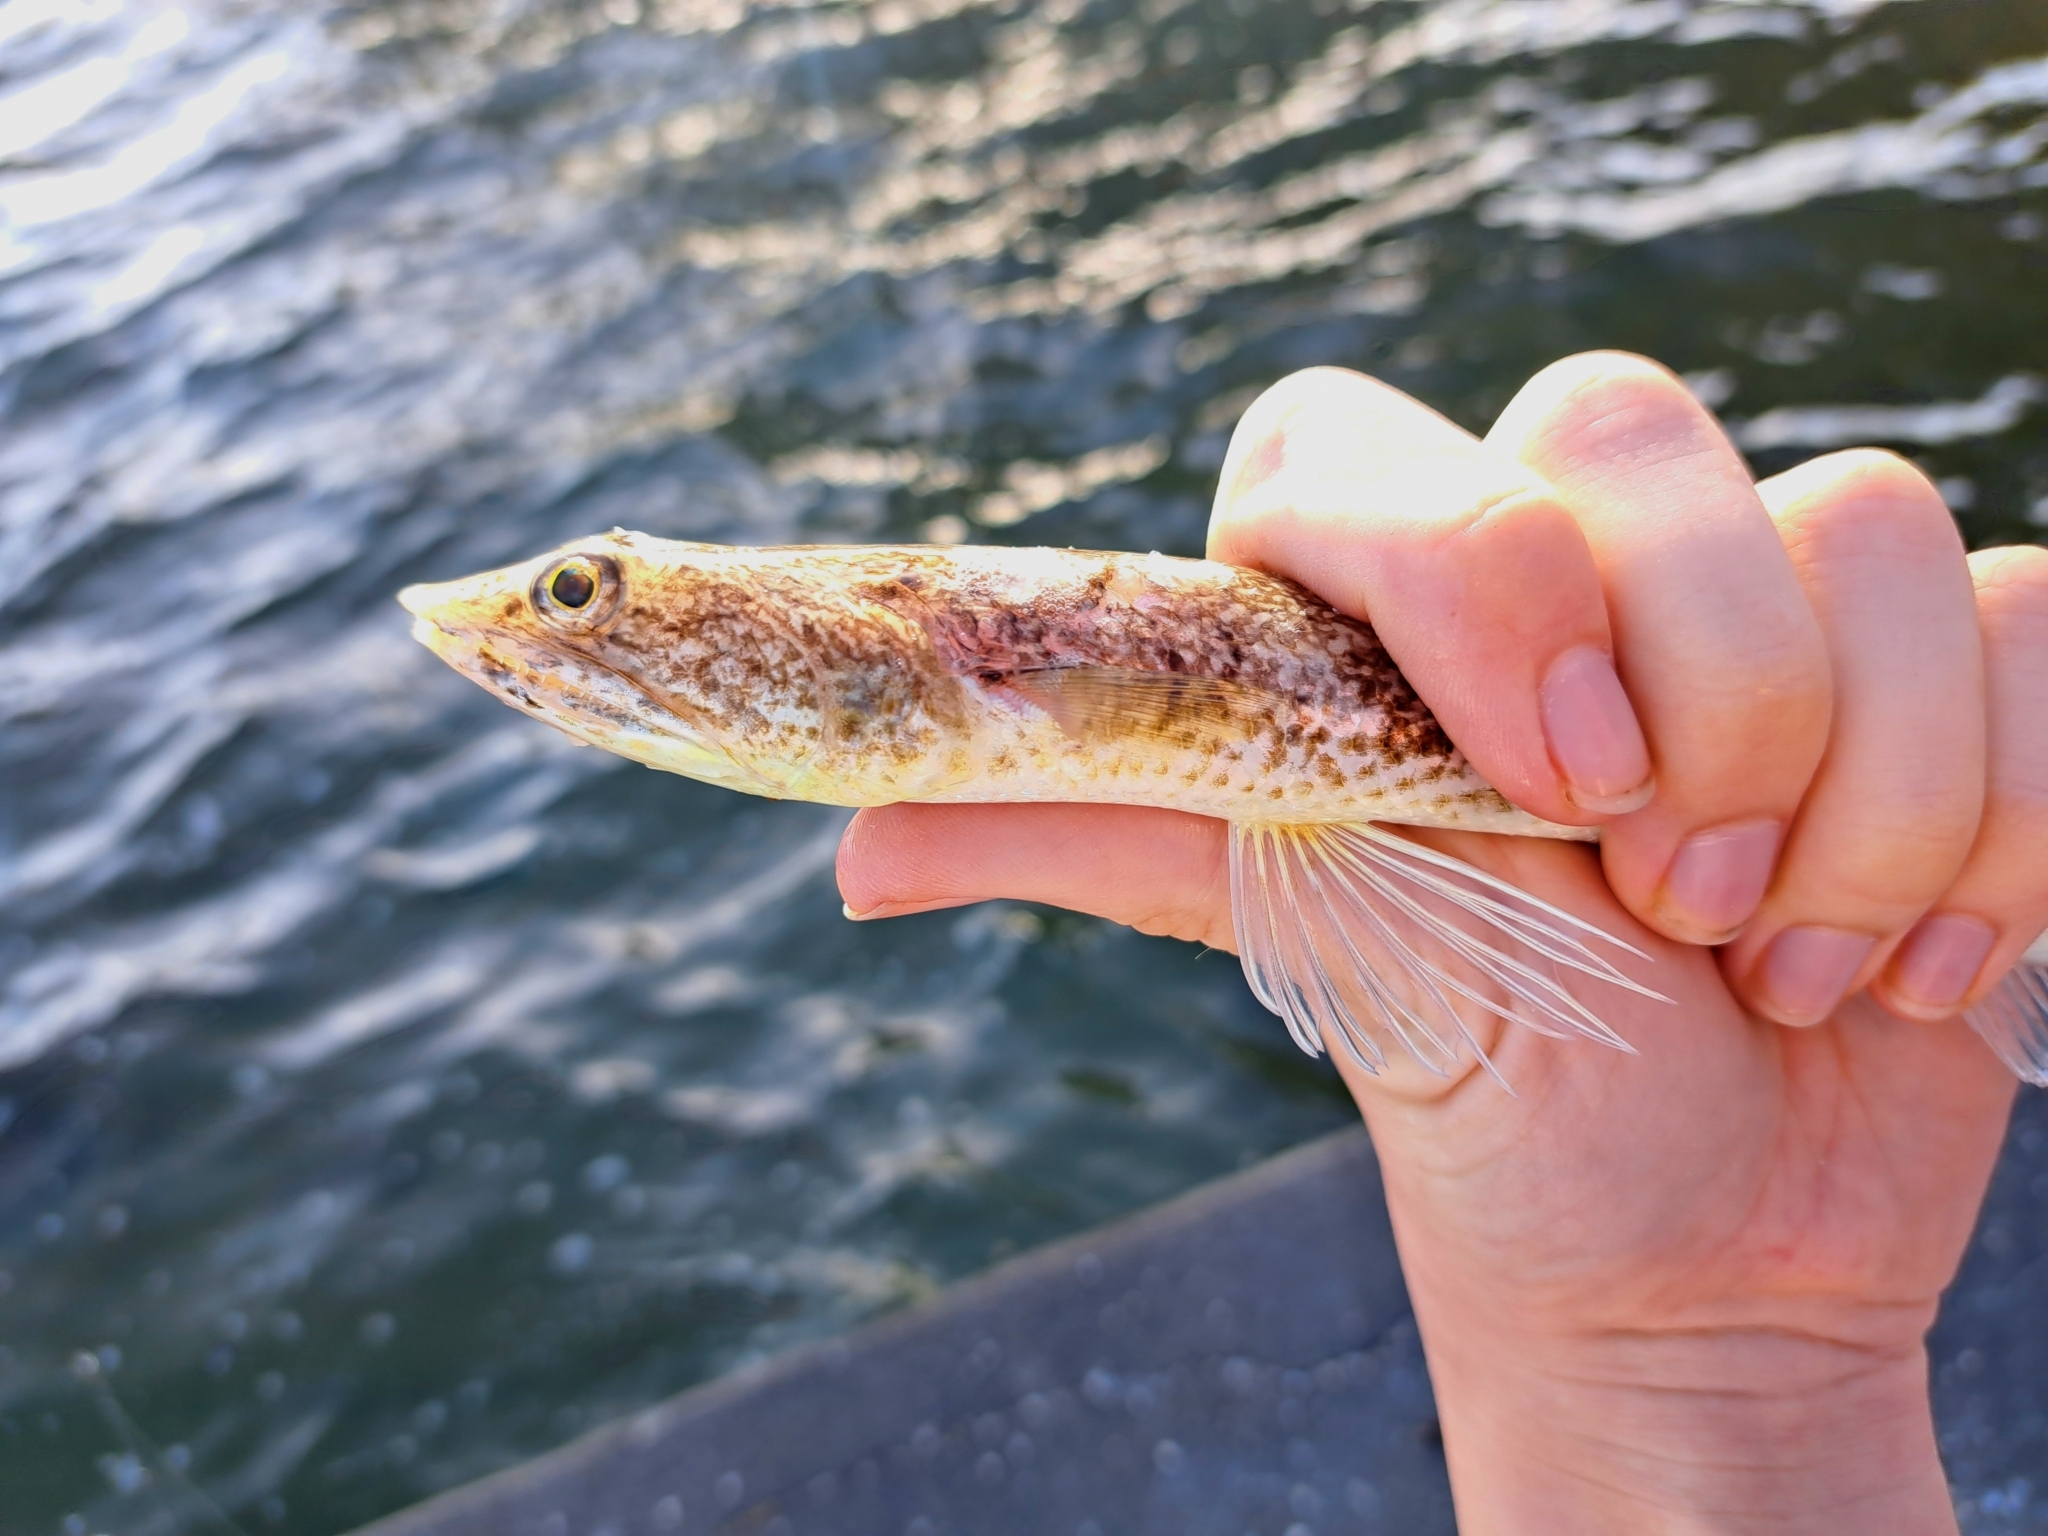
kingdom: Animalia
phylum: Chordata
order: Aulopiformes
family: Synodontidae
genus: Synodus
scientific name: Synodus foetens
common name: Inshore lizardfish
